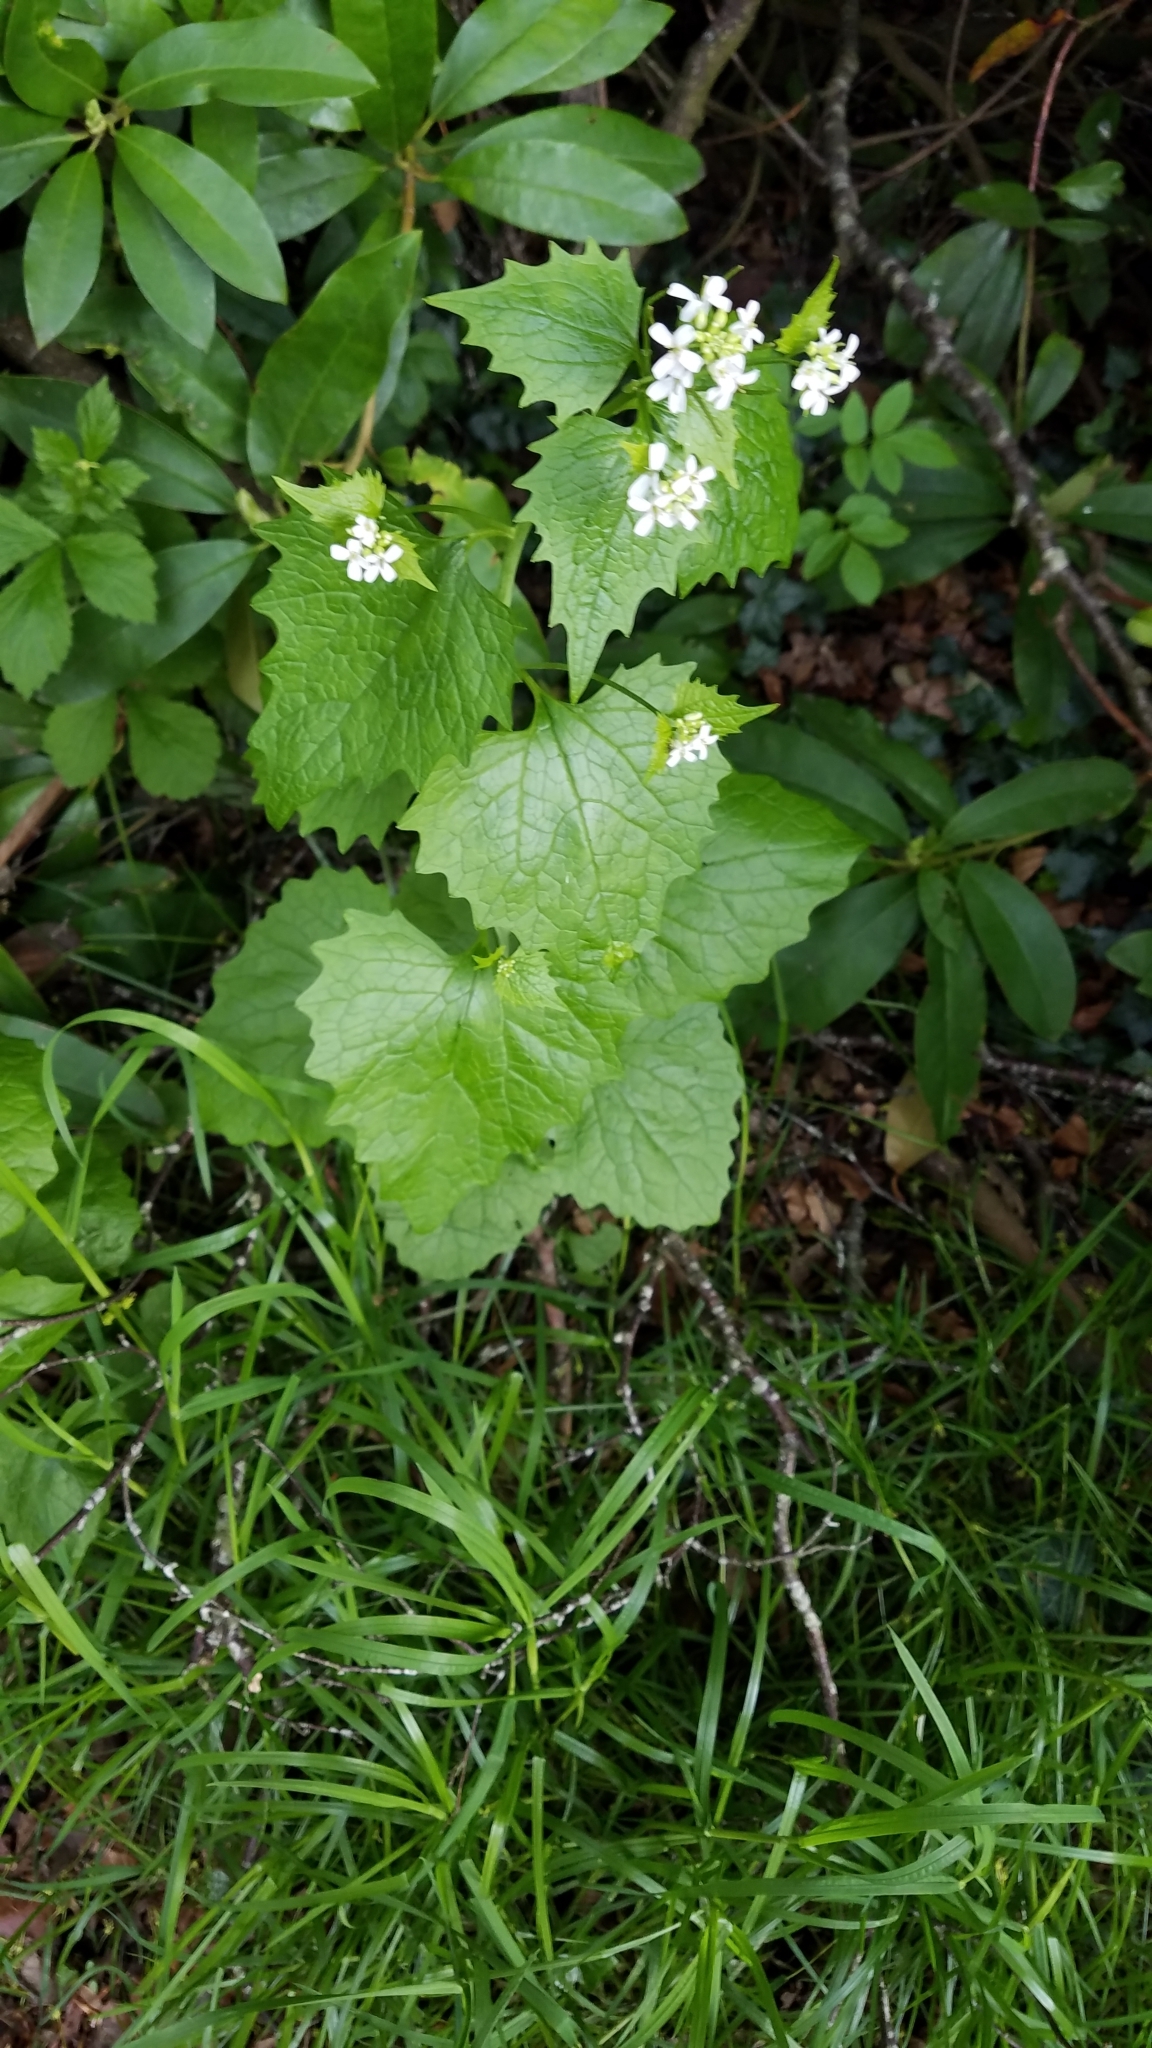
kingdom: Plantae
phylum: Tracheophyta
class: Magnoliopsida
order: Brassicales
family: Brassicaceae
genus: Alliaria
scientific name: Alliaria petiolata
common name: Garlic mustard
